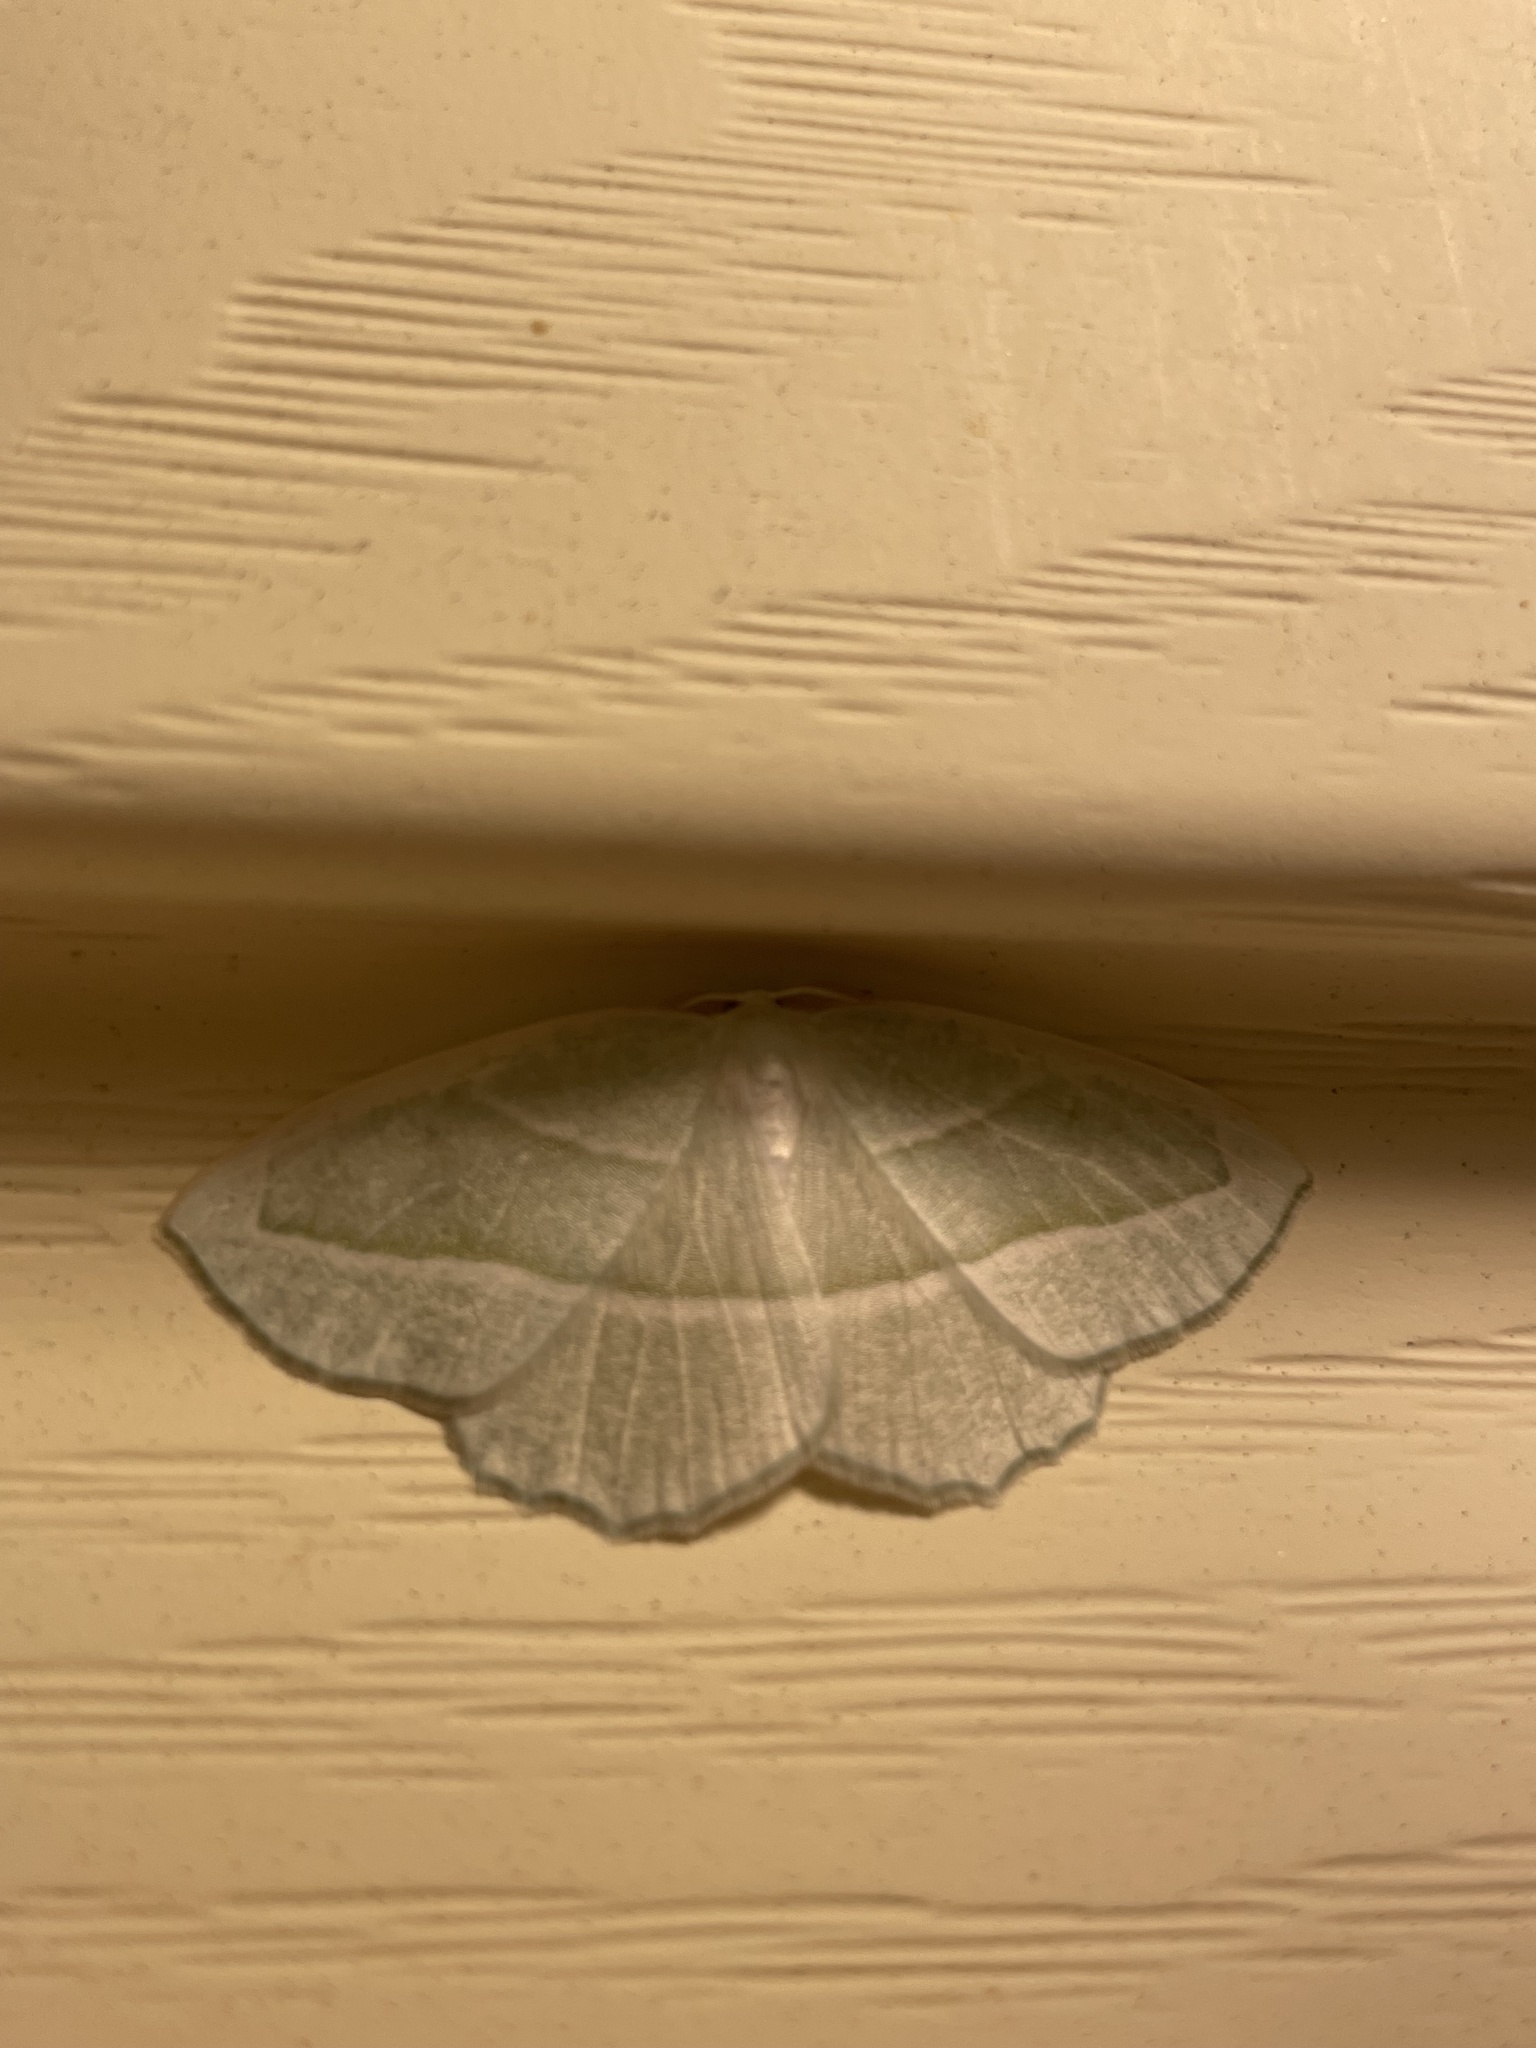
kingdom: Animalia
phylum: Arthropoda
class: Insecta
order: Lepidoptera
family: Geometridae
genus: Campaea
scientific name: Campaea perlata
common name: Fringed looper
